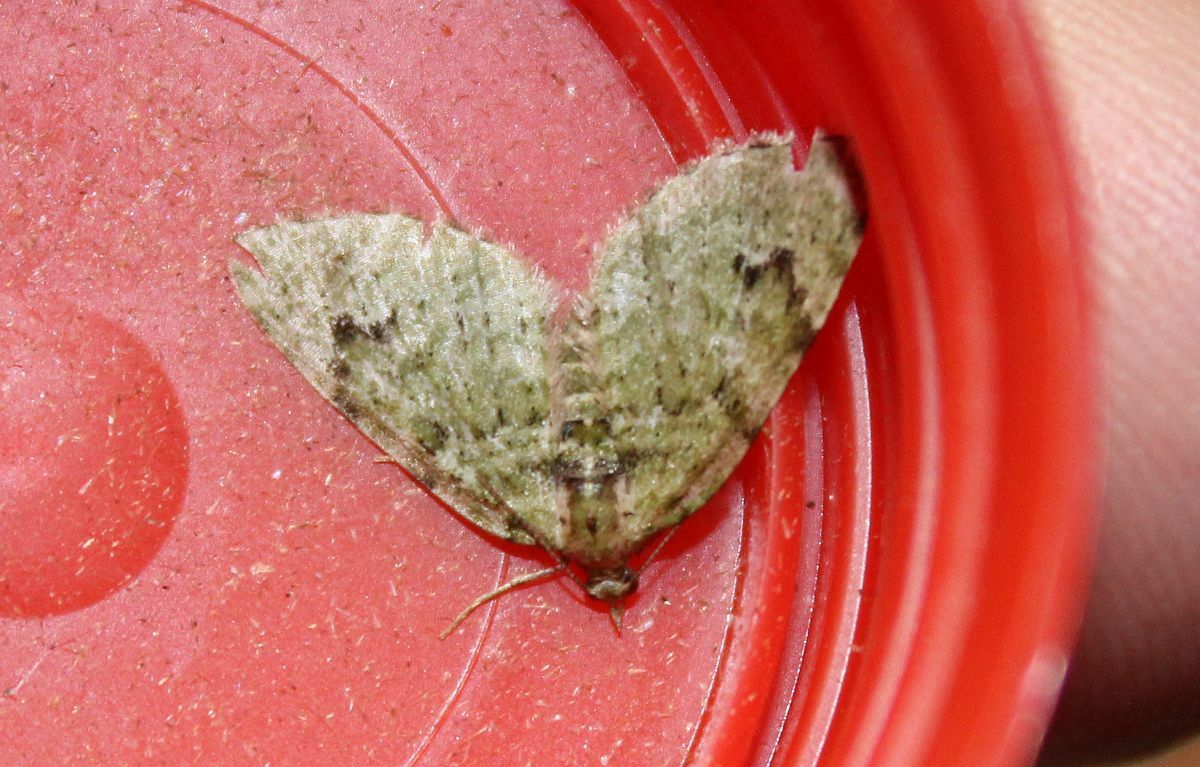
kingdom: Animalia
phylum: Arthropoda
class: Insecta
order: Lepidoptera
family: Geometridae
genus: Chloroclystis
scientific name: Chloroclystis v-ata
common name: V-pug
